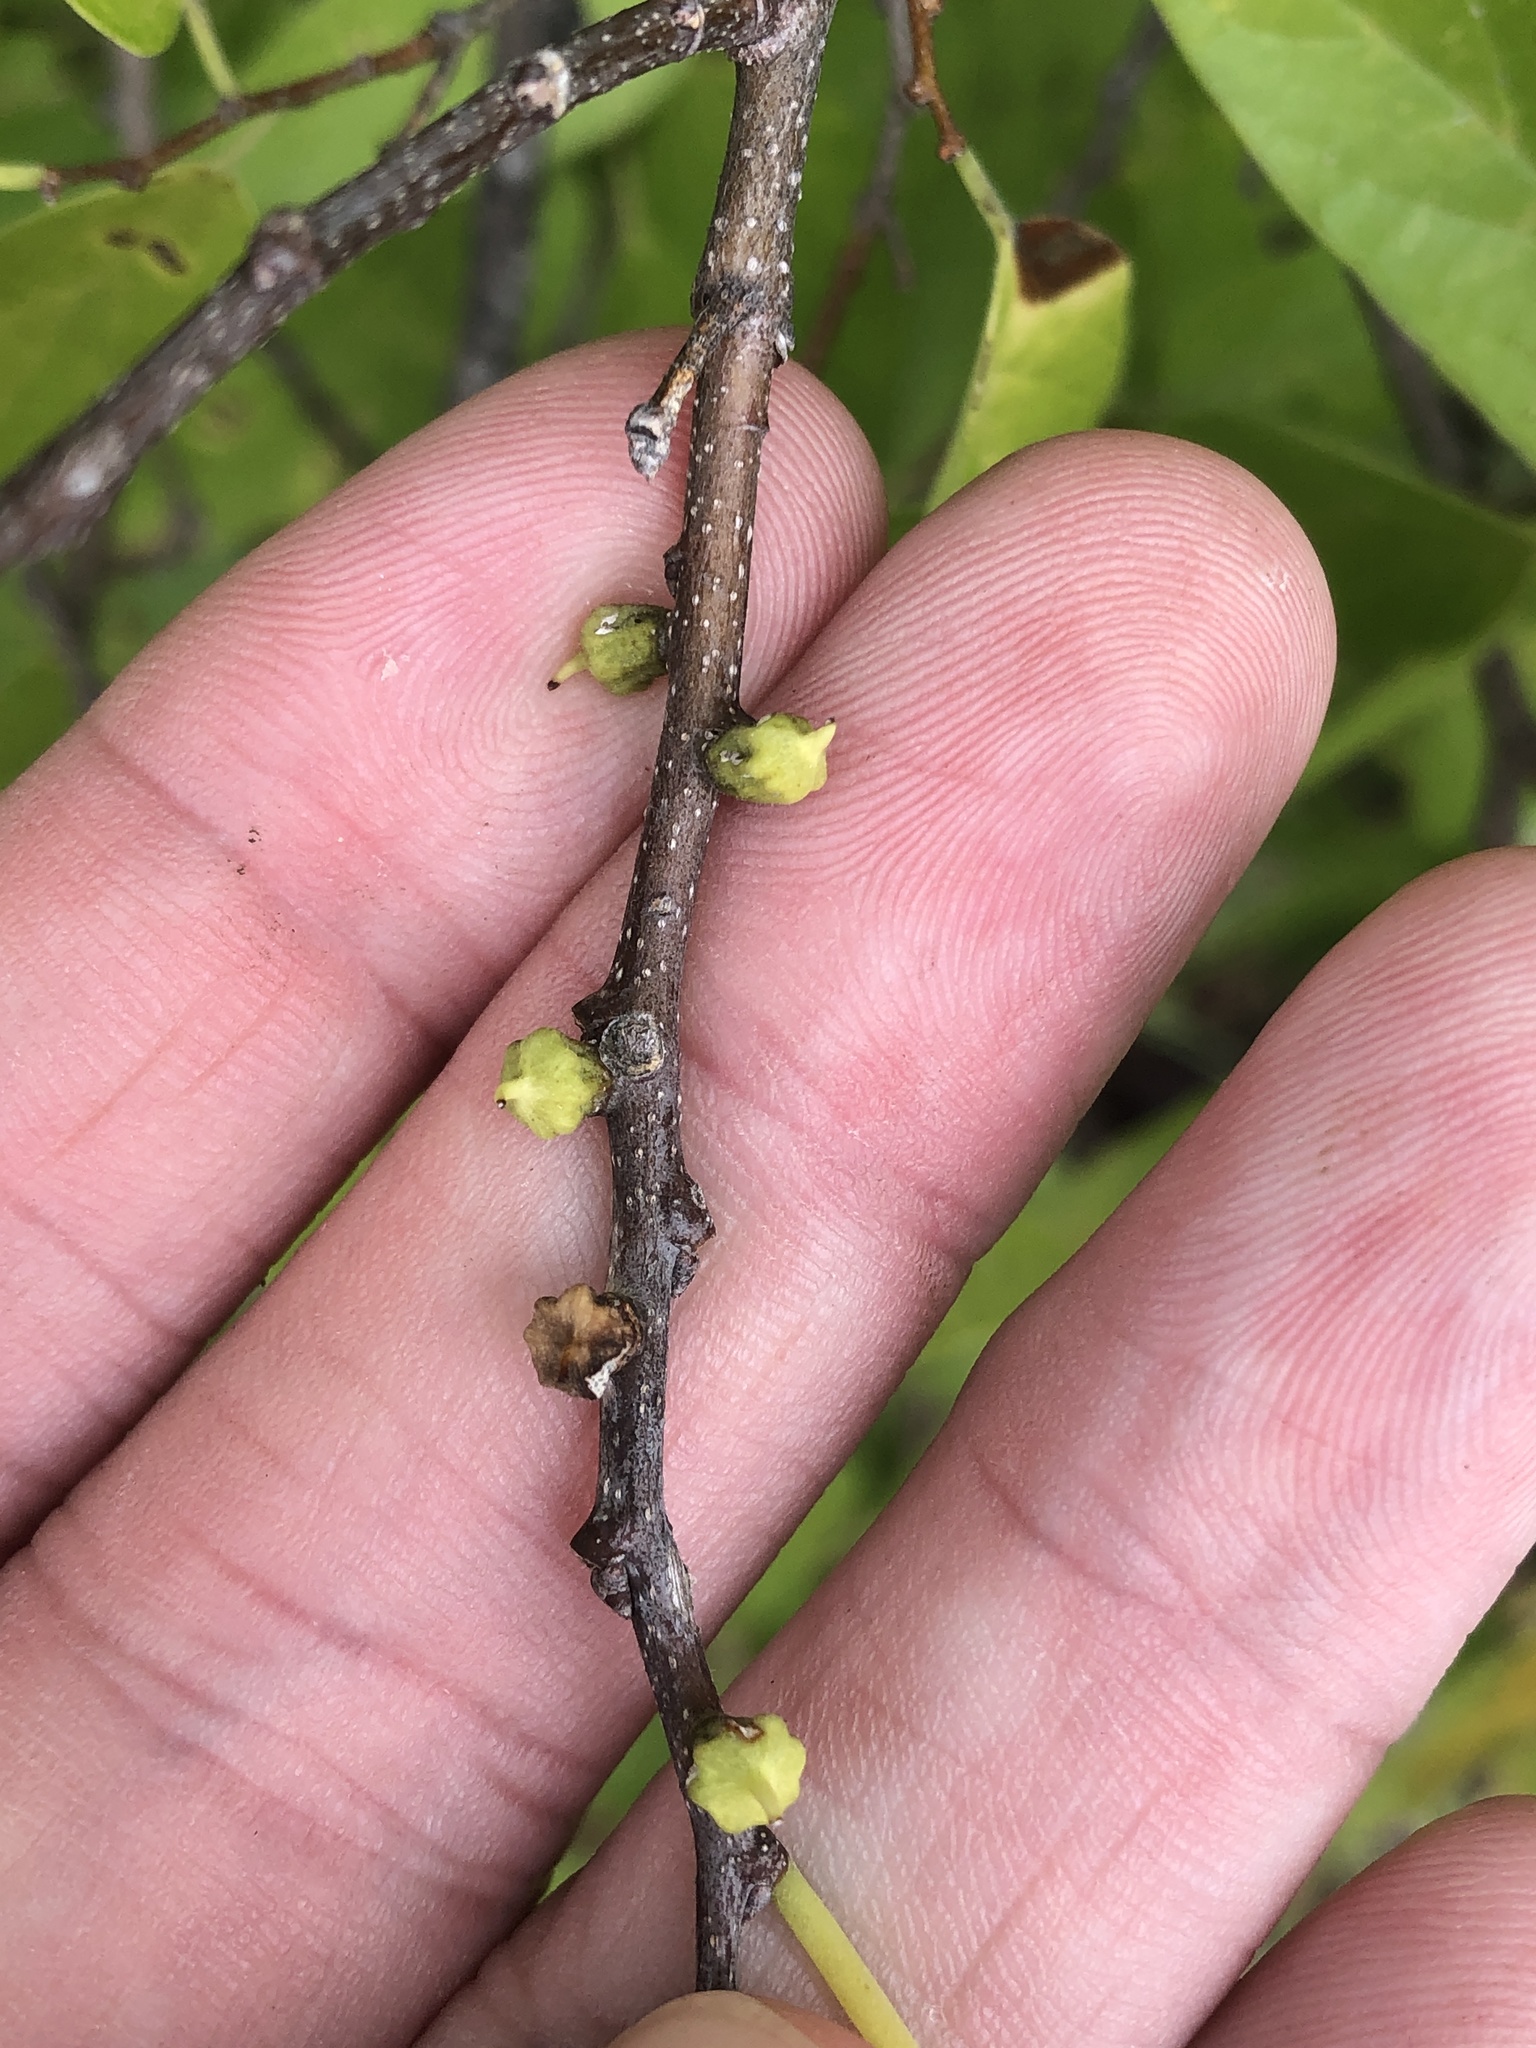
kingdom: Animalia
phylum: Arthropoda
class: Insecta
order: Diptera
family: Cecidomyiidae
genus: Celticecis
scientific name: Celticecis ramicola
